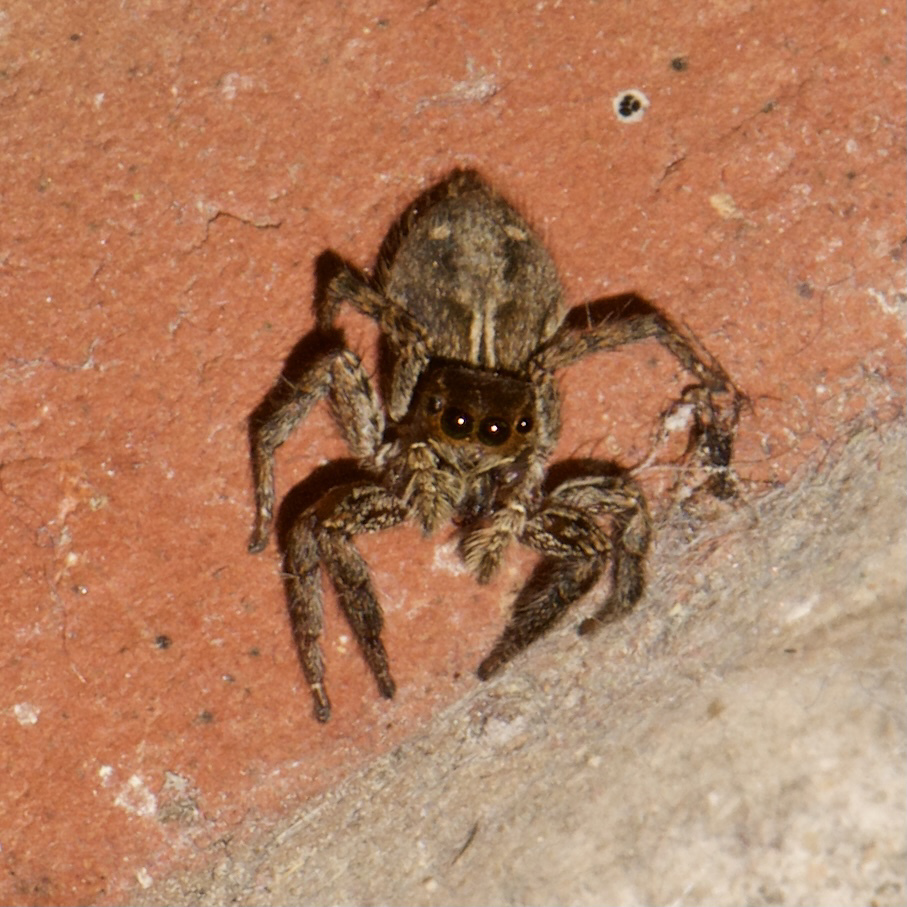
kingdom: Animalia
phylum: Arthropoda
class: Arachnida
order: Araneae
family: Salticidae
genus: Plexippus
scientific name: Plexippus paykulli
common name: Pantropical jumper
